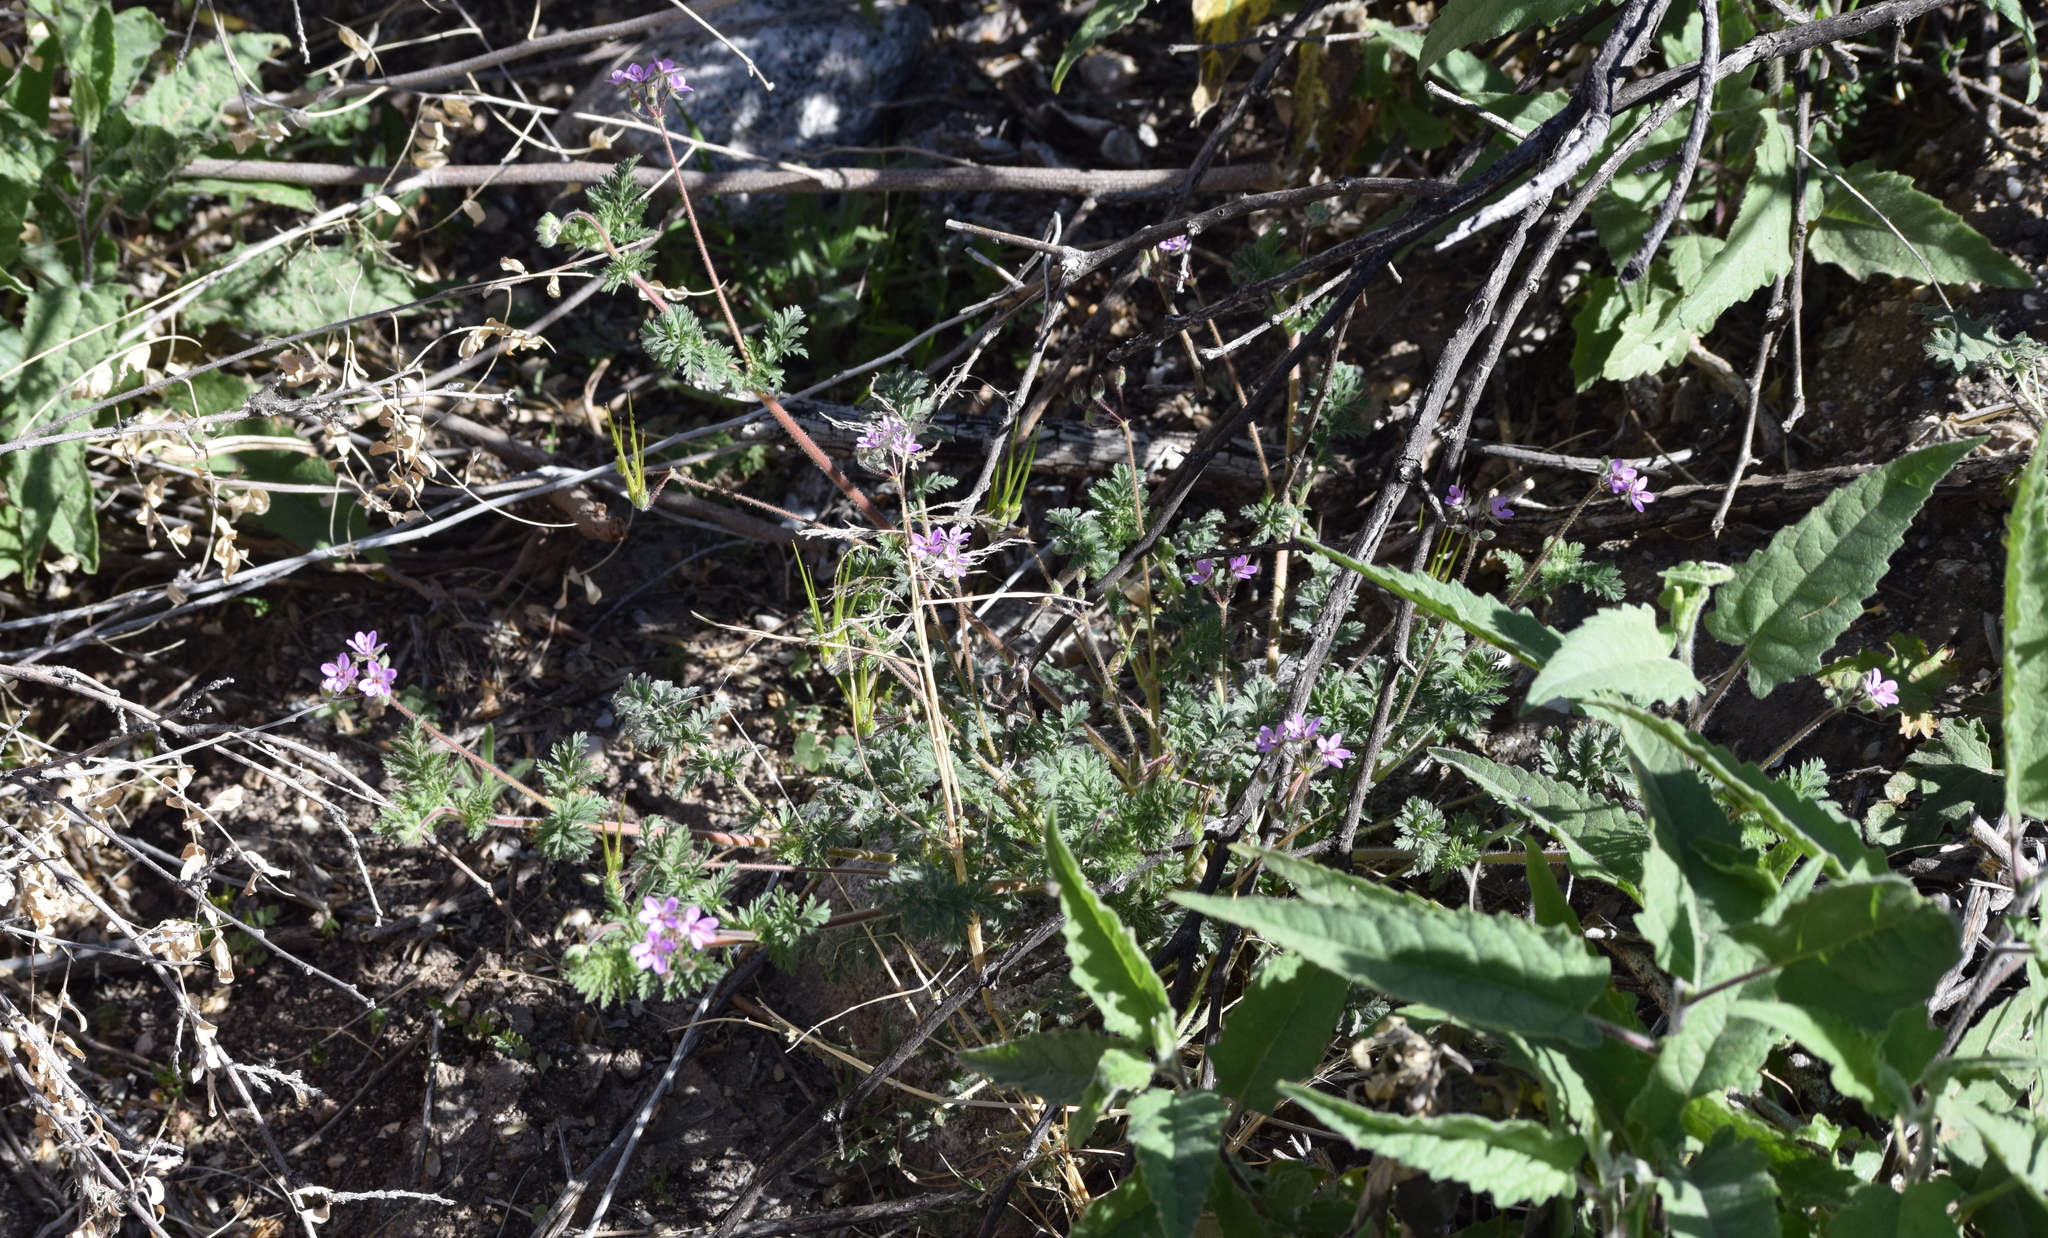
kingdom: Plantae
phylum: Tracheophyta
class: Magnoliopsida
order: Geraniales
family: Geraniaceae
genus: Erodium
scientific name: Erodium cicutarium
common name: Common stork's-bill
